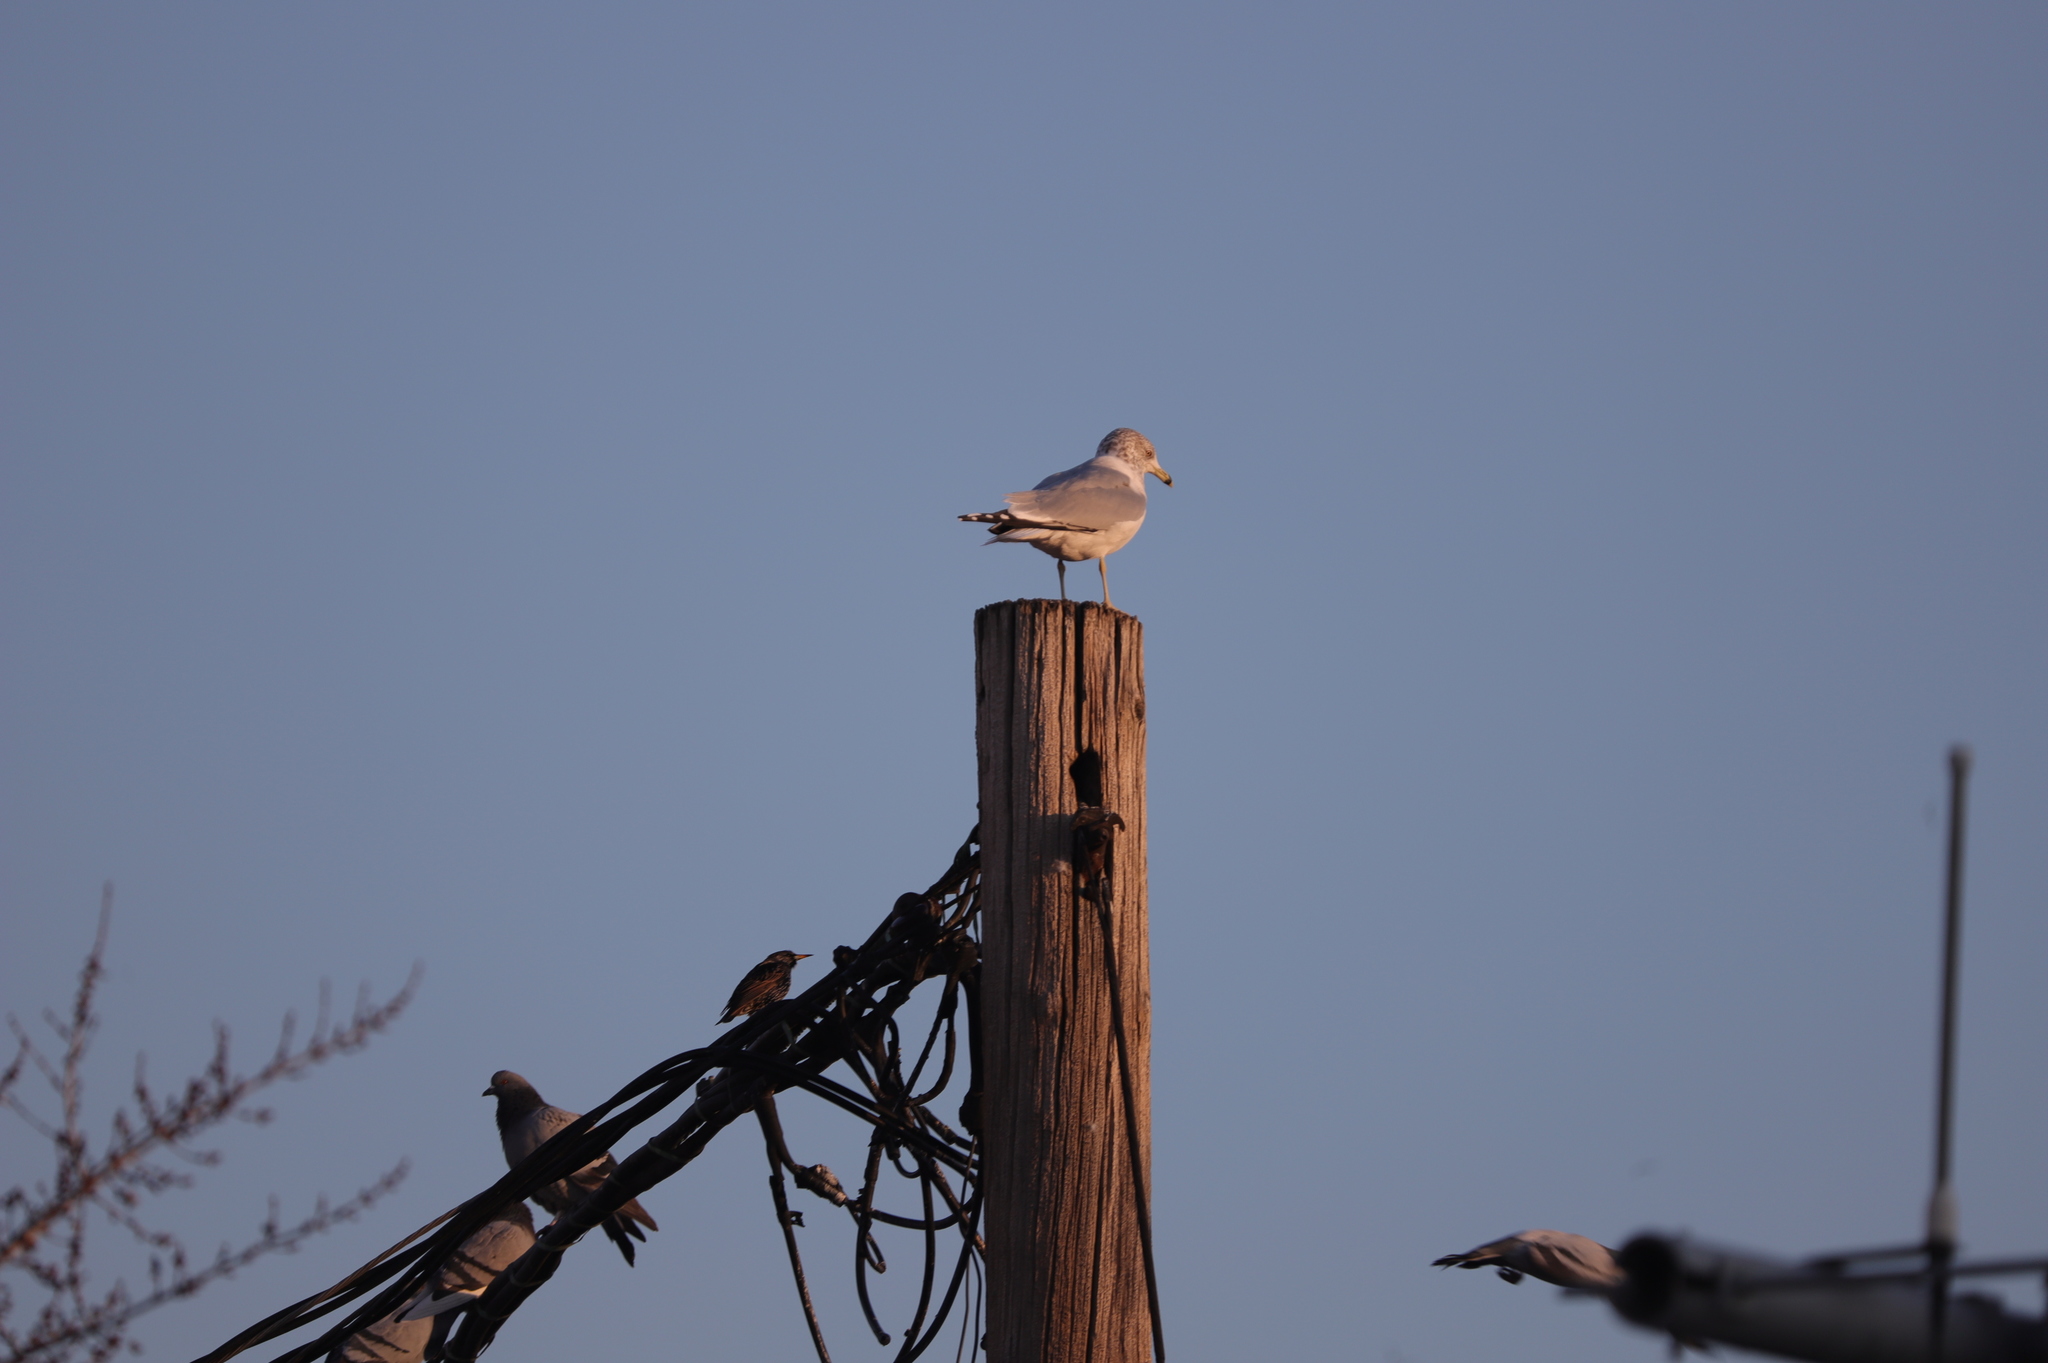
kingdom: Animalia
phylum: Chordata
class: Aves
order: Charadriiformes
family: Laridae
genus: Larus
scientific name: Larus delawarensis
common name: Ring-billed gull
